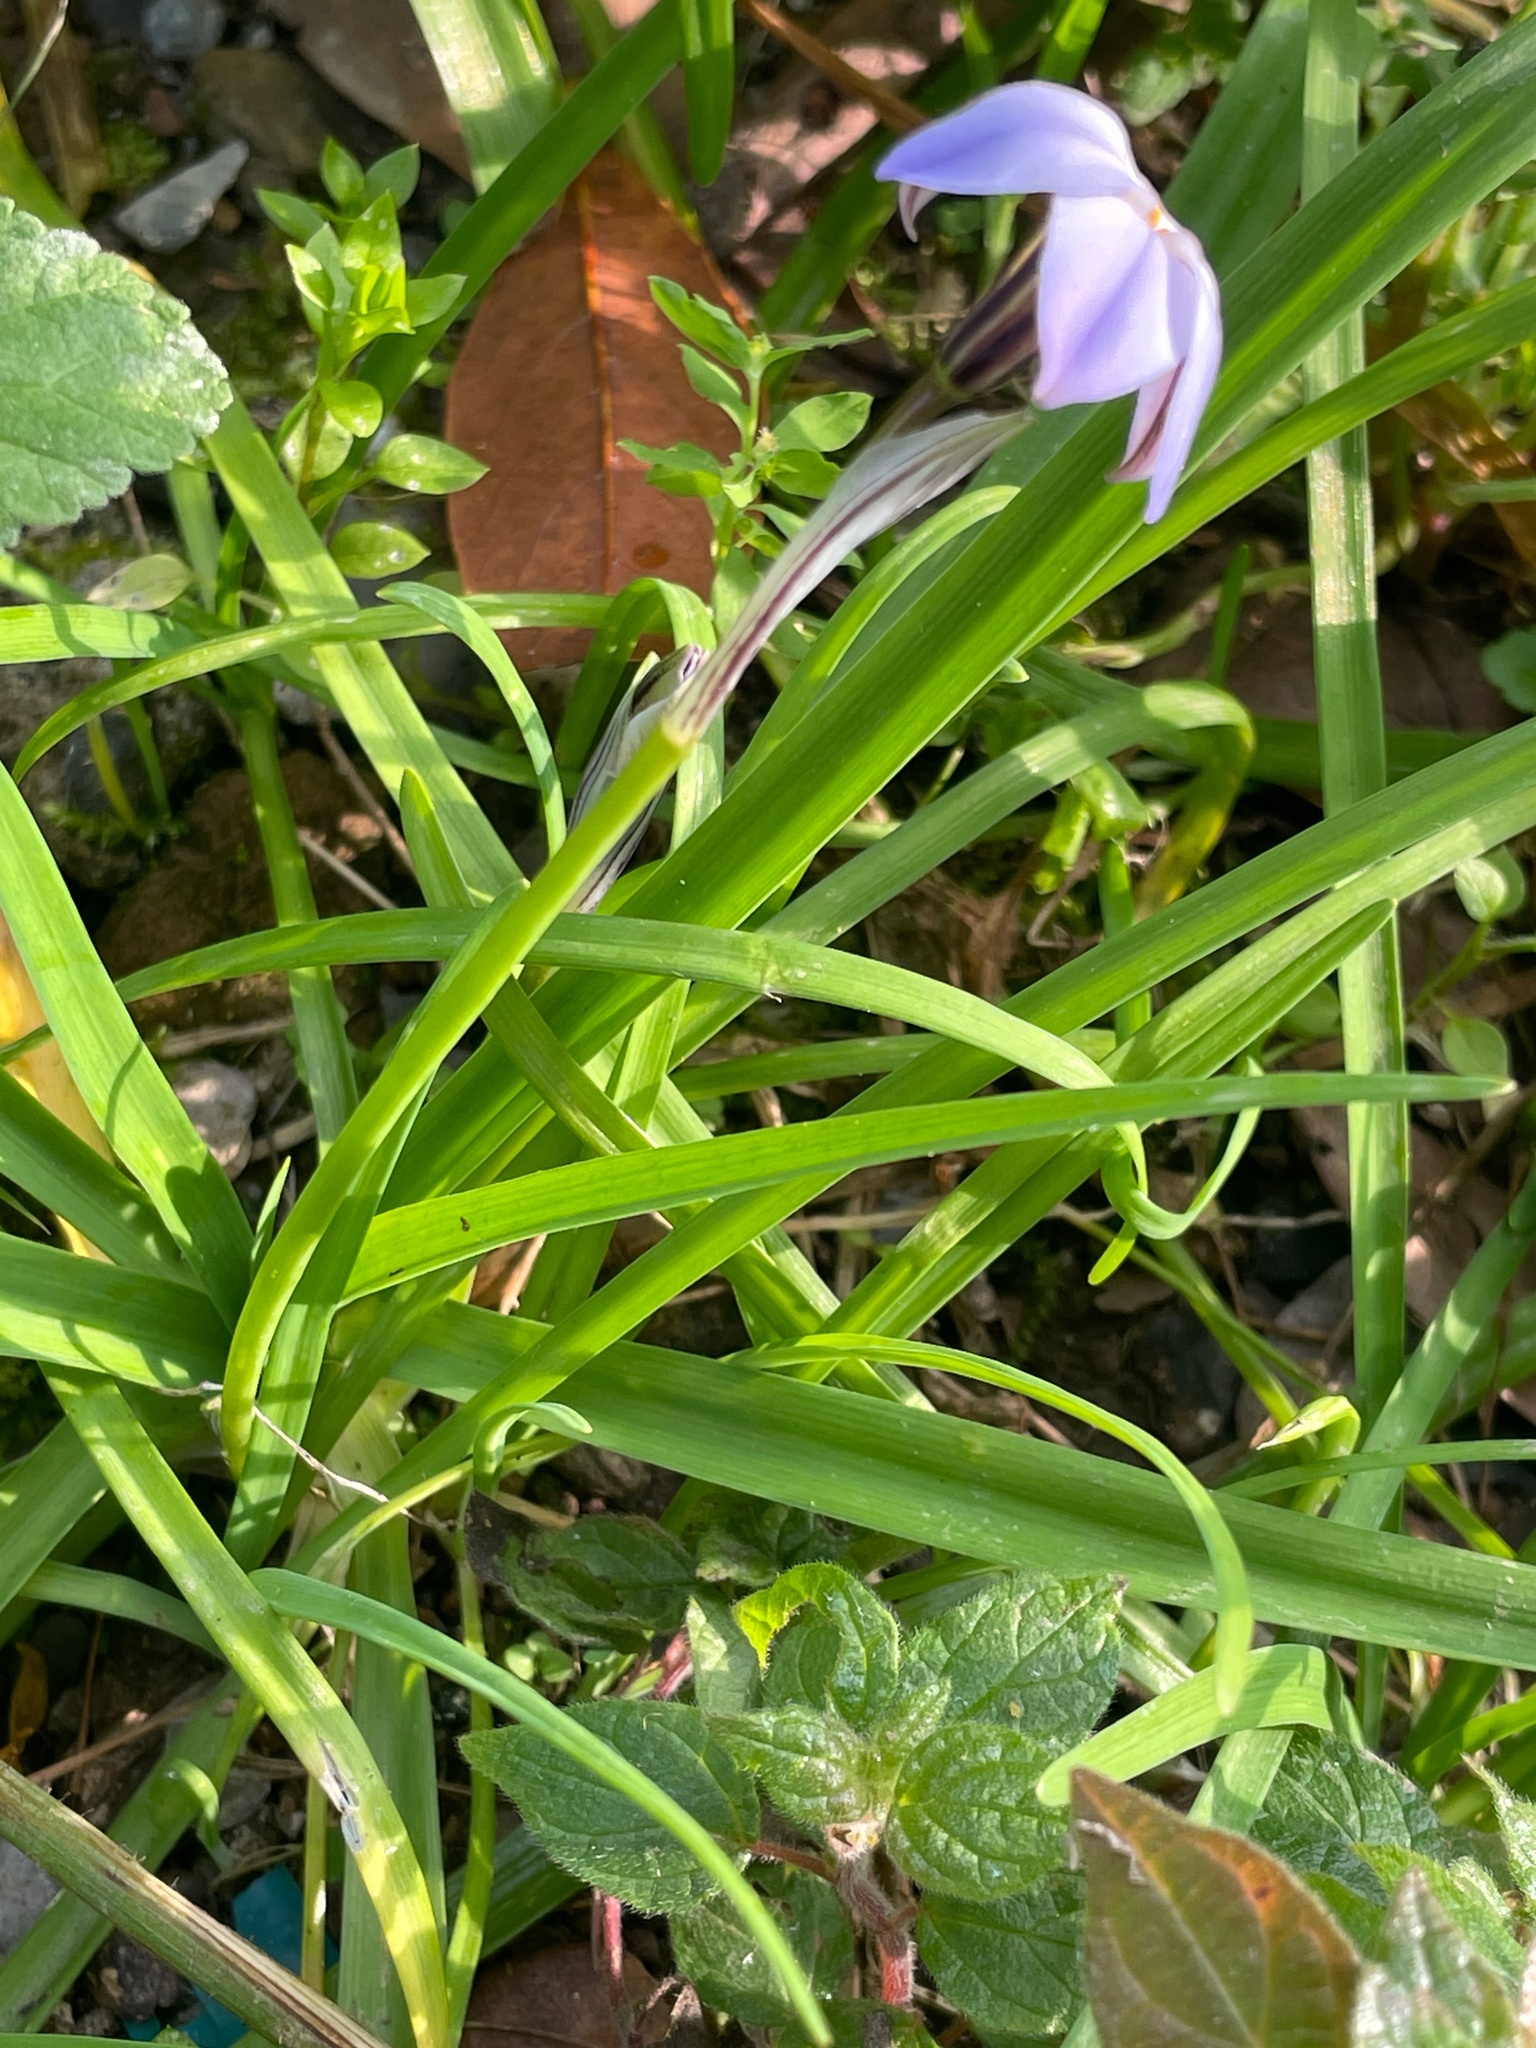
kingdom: Plantae
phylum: Tracheophyta
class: Liliopsida
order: Asparagales
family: Amaryllidaceae
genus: Ipheion
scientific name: Ipheion uniflorum
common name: Spring starflower
